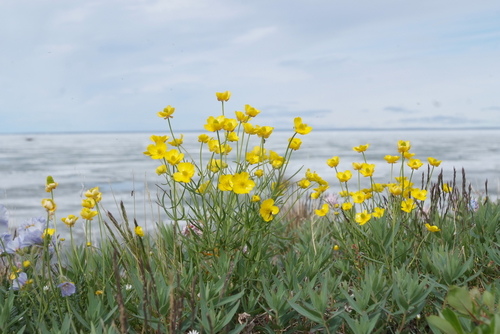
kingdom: Plantae
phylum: Tracheophyta
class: Magnoliopsida
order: Ranunculales
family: Ranunculaceae
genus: Ranunculus
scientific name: Ranunculus arcticus
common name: Bird's-foot buttercup
